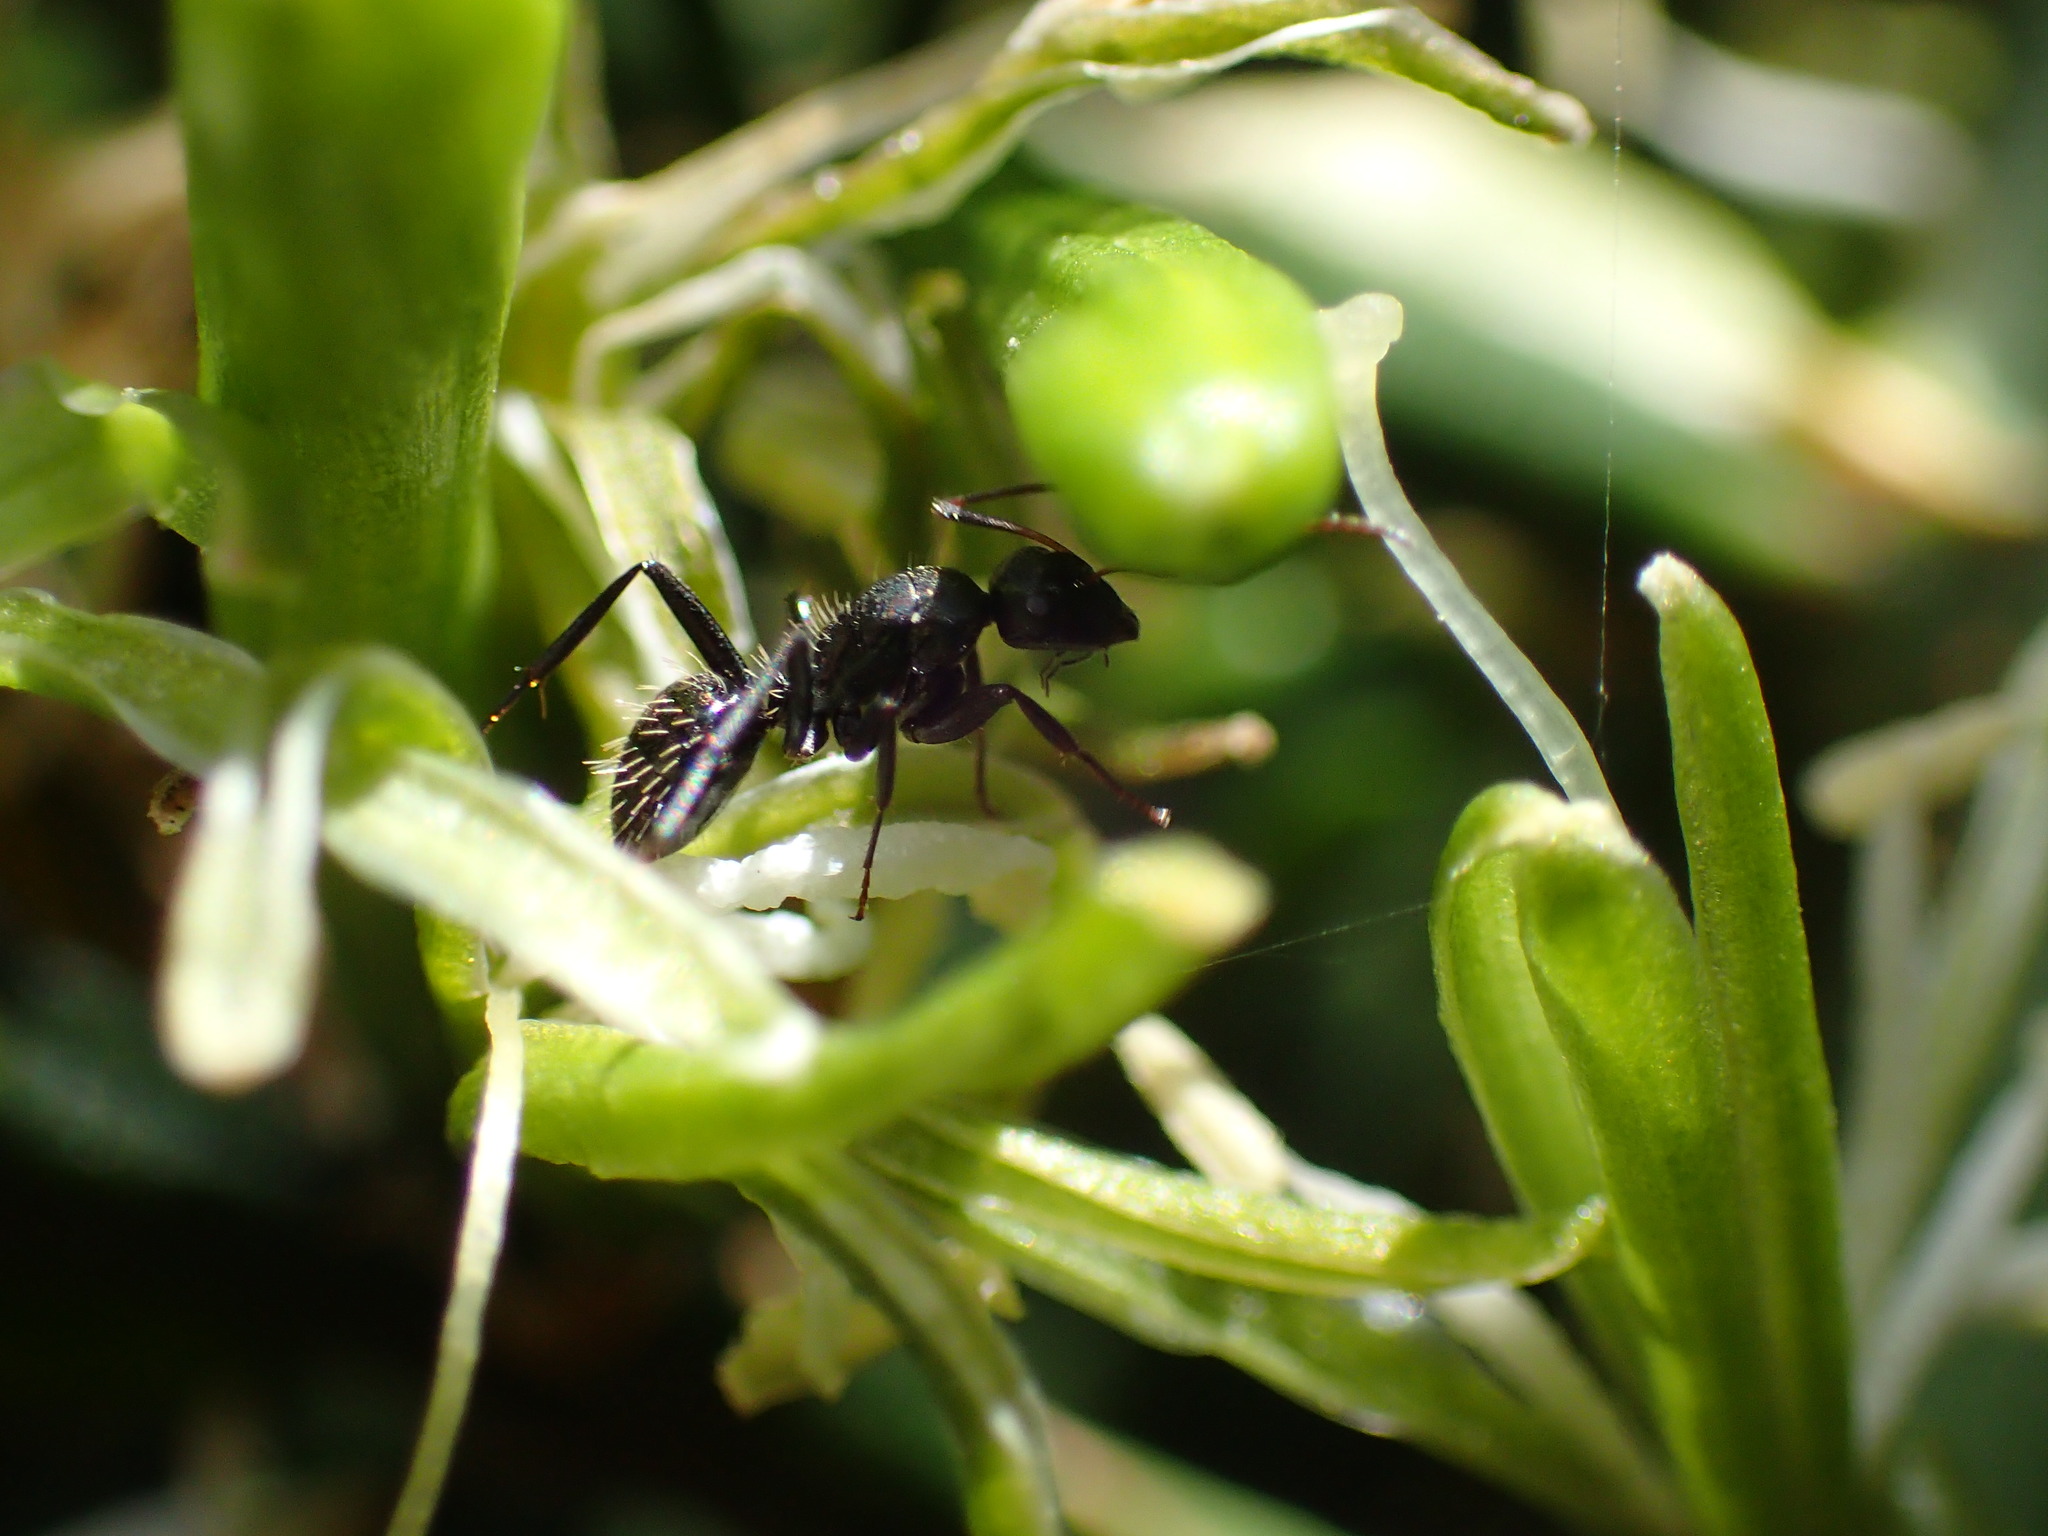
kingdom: Plantae
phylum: Tracheophyta
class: Liliopsida
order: Asparagales
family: Asparagaceae
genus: Dracaena
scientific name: Dracaena aletriformis
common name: Large-leaved dragon tree
